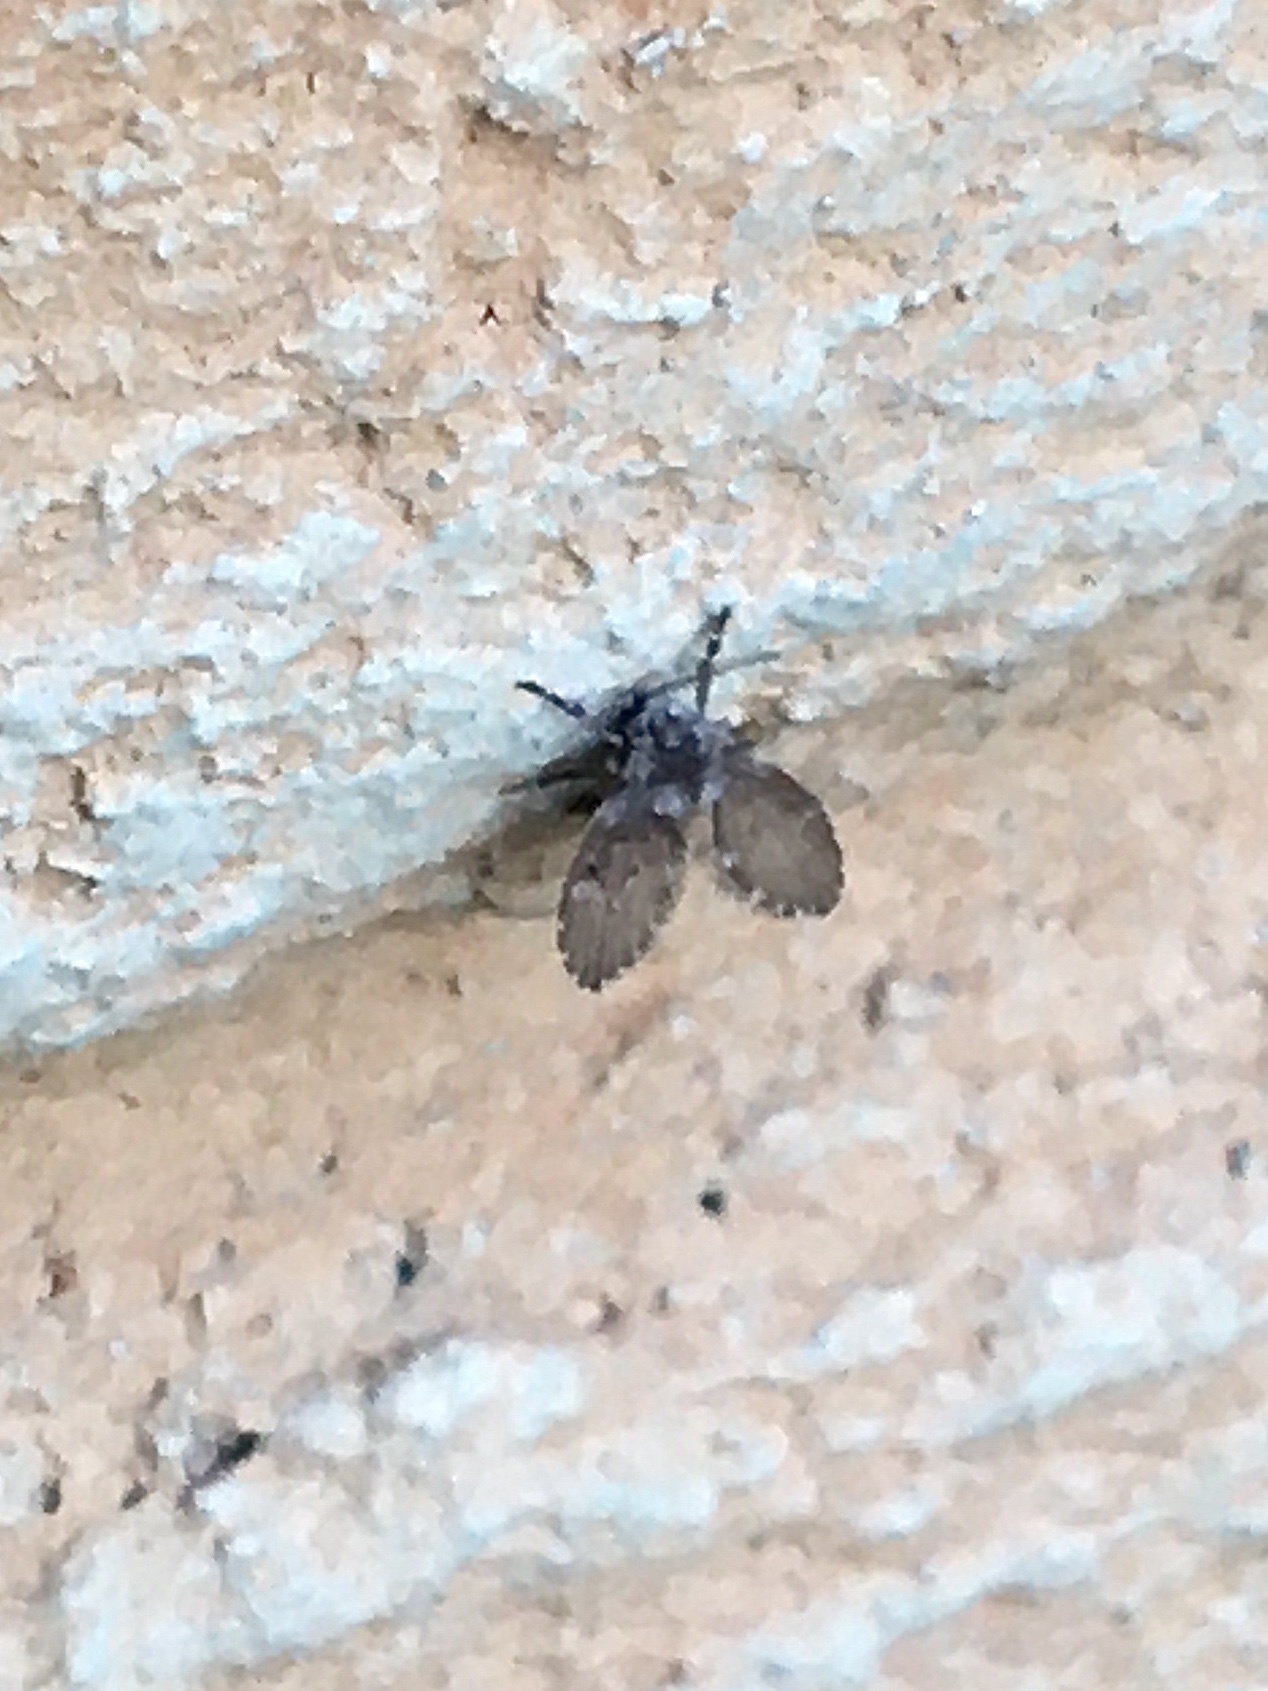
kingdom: Animalia
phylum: Arthropoda
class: Insecta
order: Diptera
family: Psychodidae
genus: Clogmia
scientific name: Clogmia albipunctatus
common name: White-spotted moth fly
